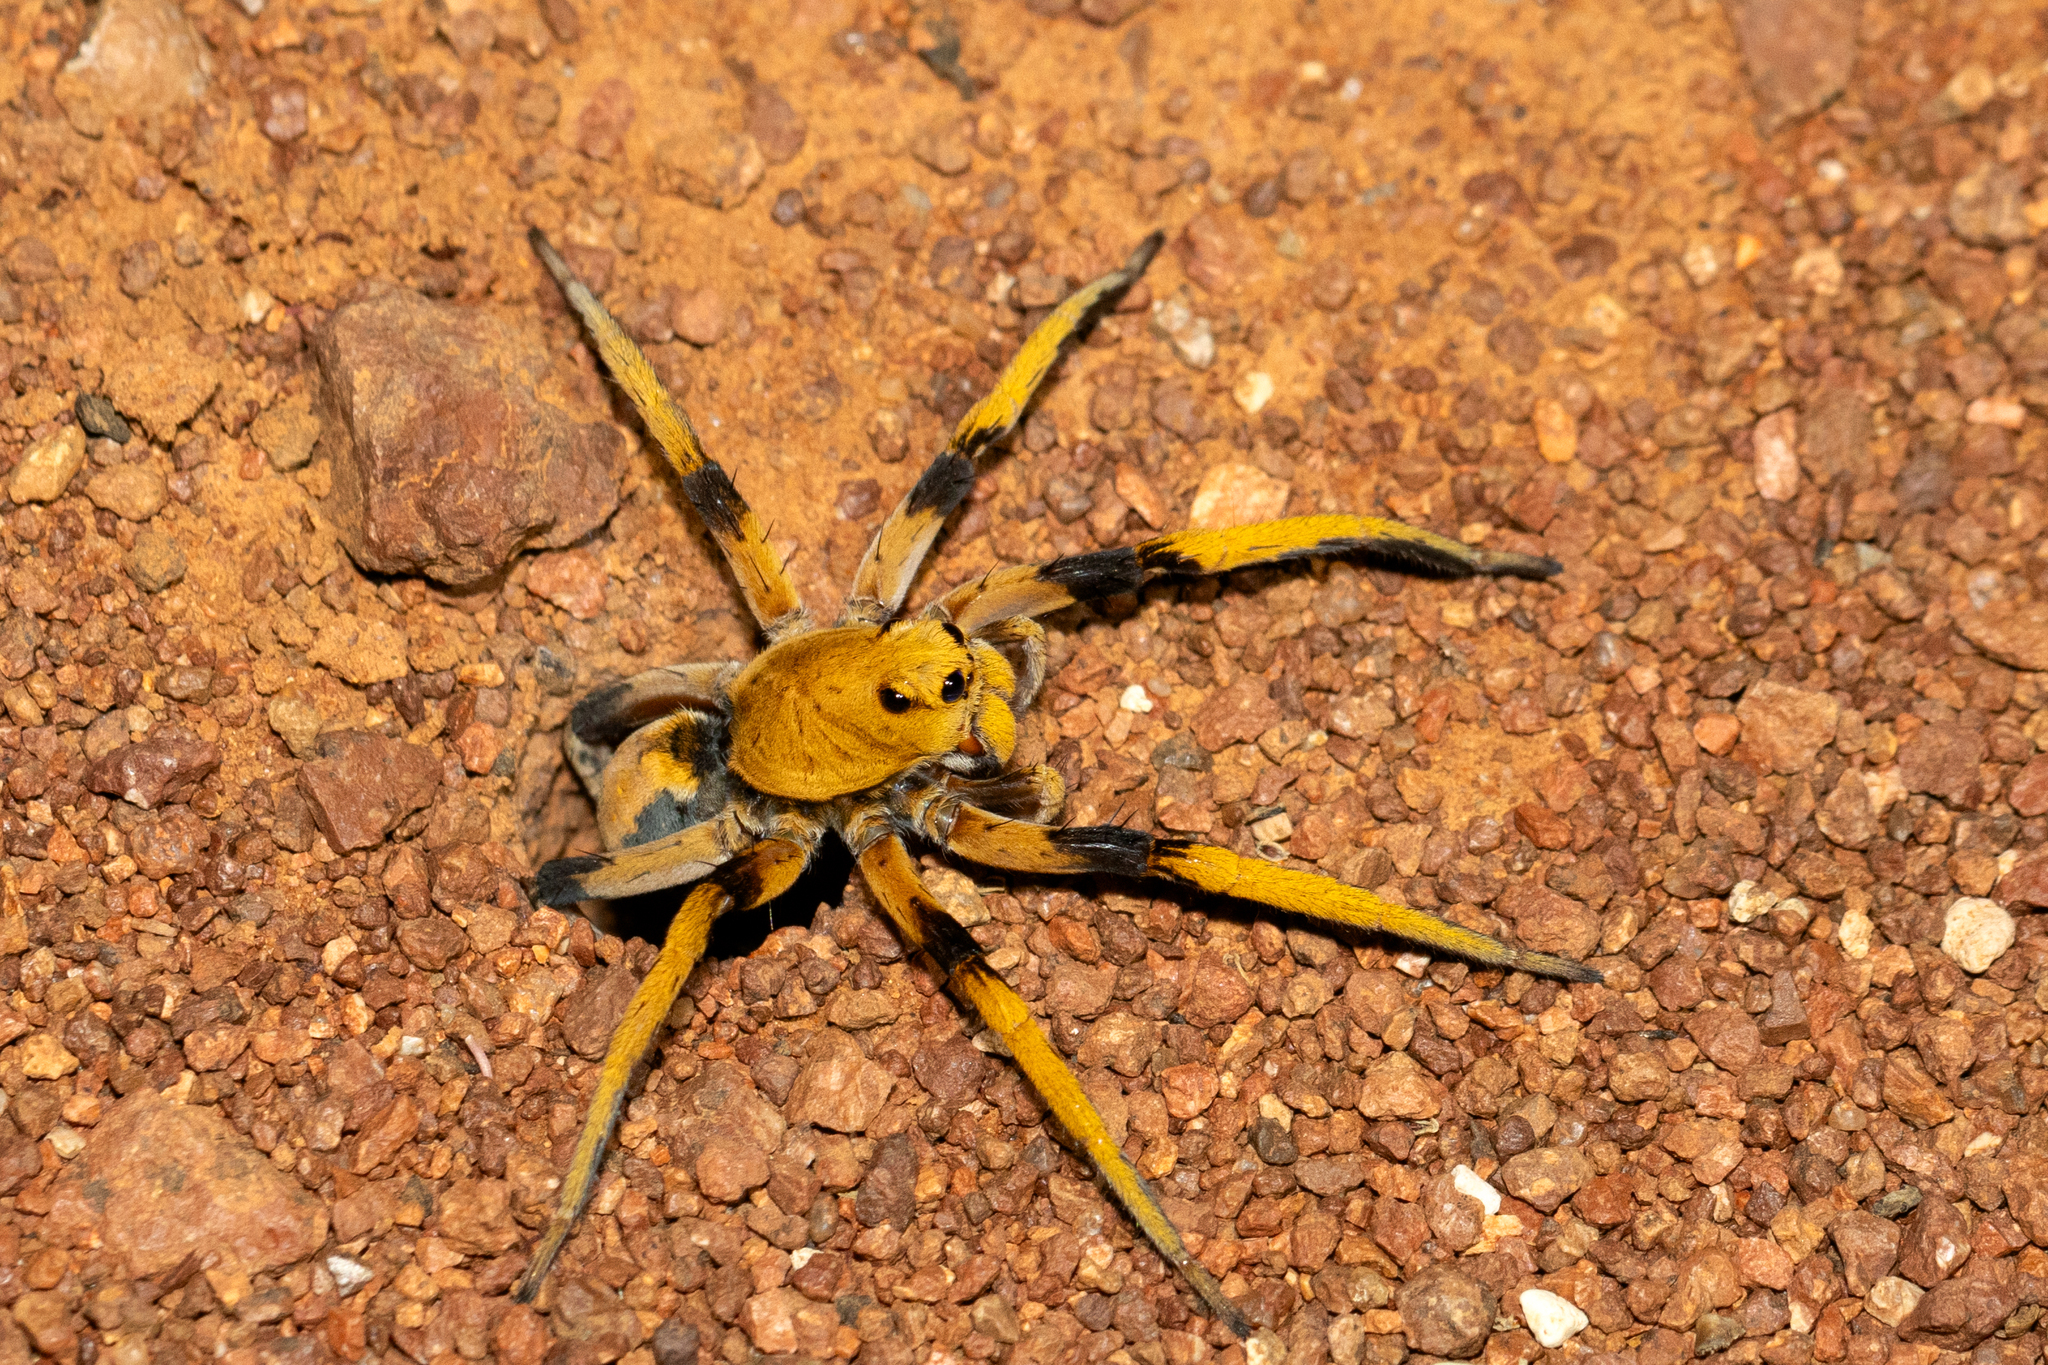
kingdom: Animalia
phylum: Arthropoda
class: Arachnida
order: Araneae
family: Lycosidae
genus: Hoggicosa
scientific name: Hoggicosa bicolor
